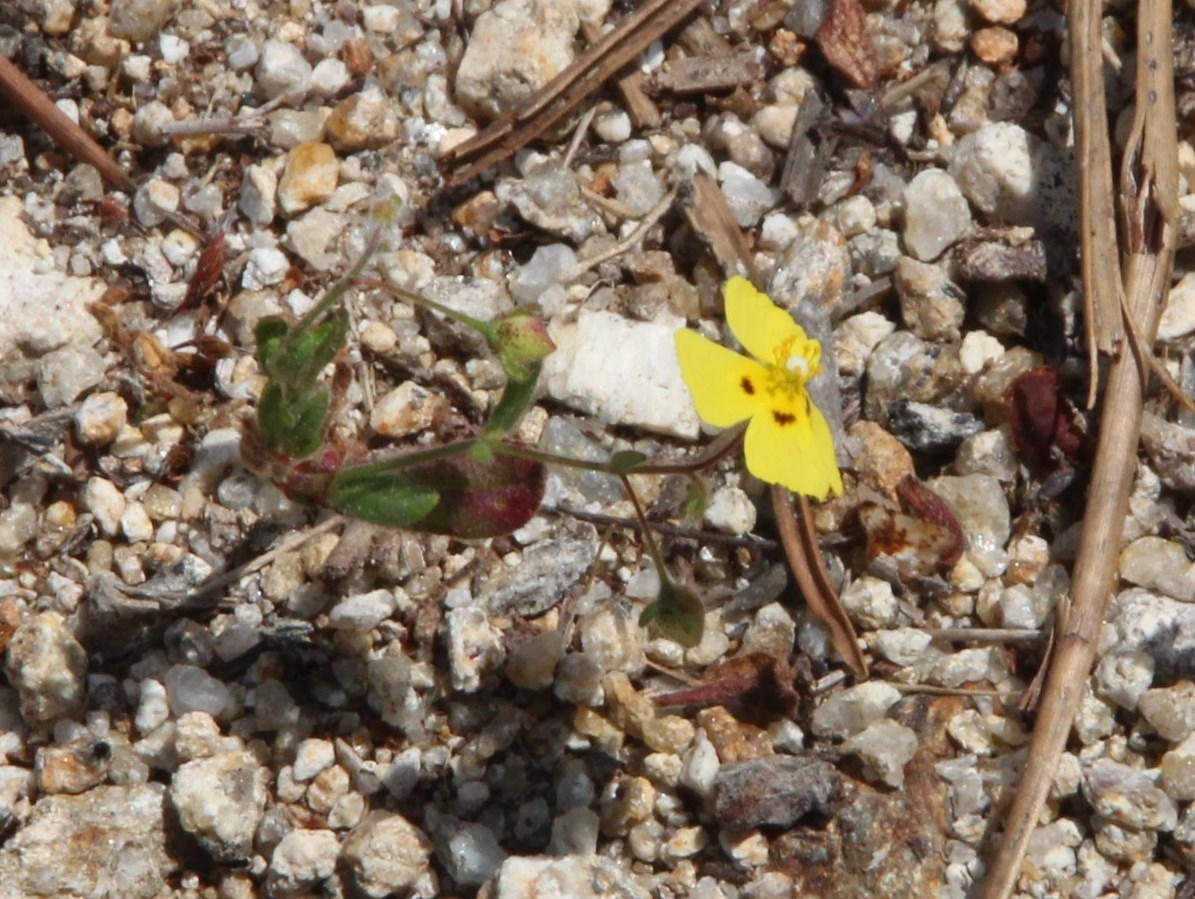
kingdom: Plantae
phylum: Tracheophyta
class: Magnoliopsida
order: Malvales
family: Cistaceae
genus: Tuberaria
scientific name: Tuberaria guttata
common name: Spotted rock-rose
